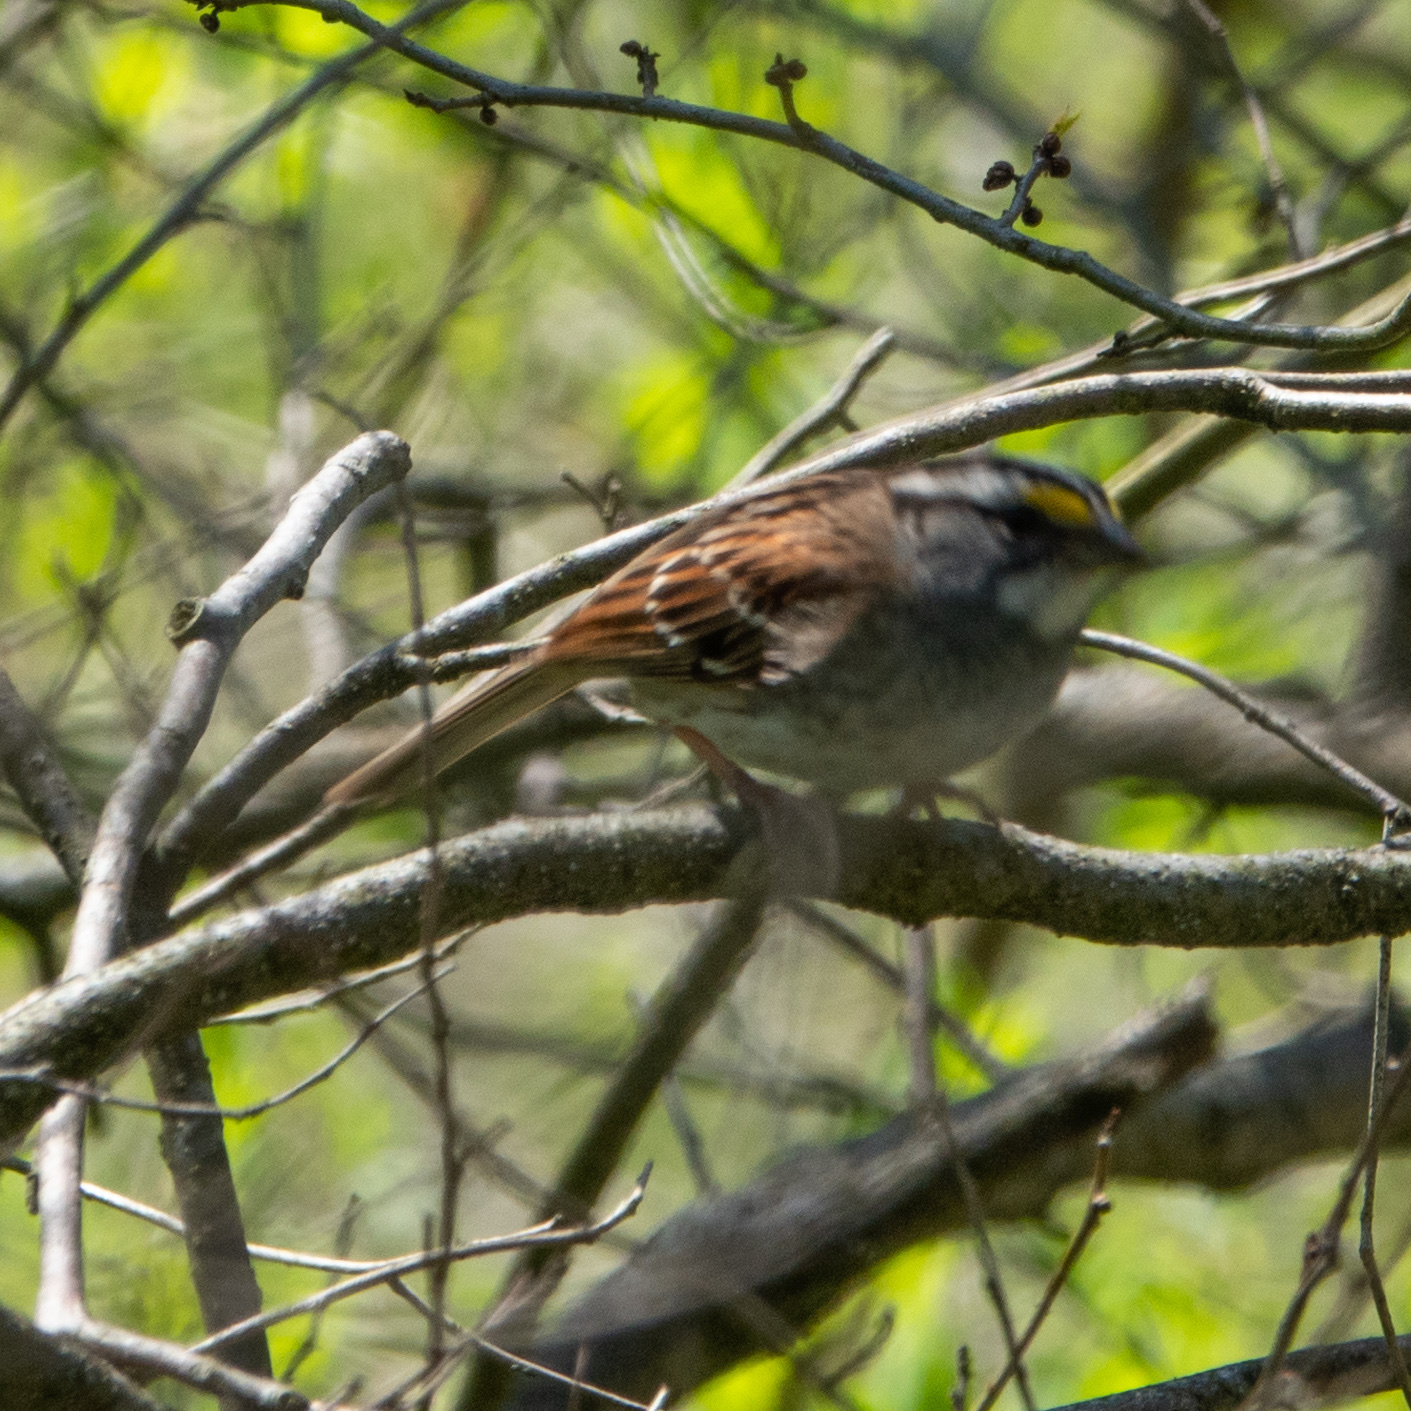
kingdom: Animalia
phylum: Chordata
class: Aves
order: Passeriformes
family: Passerellidae
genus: Zonotrichia
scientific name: Zonotrichia albicollis
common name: White-throated sparrow
